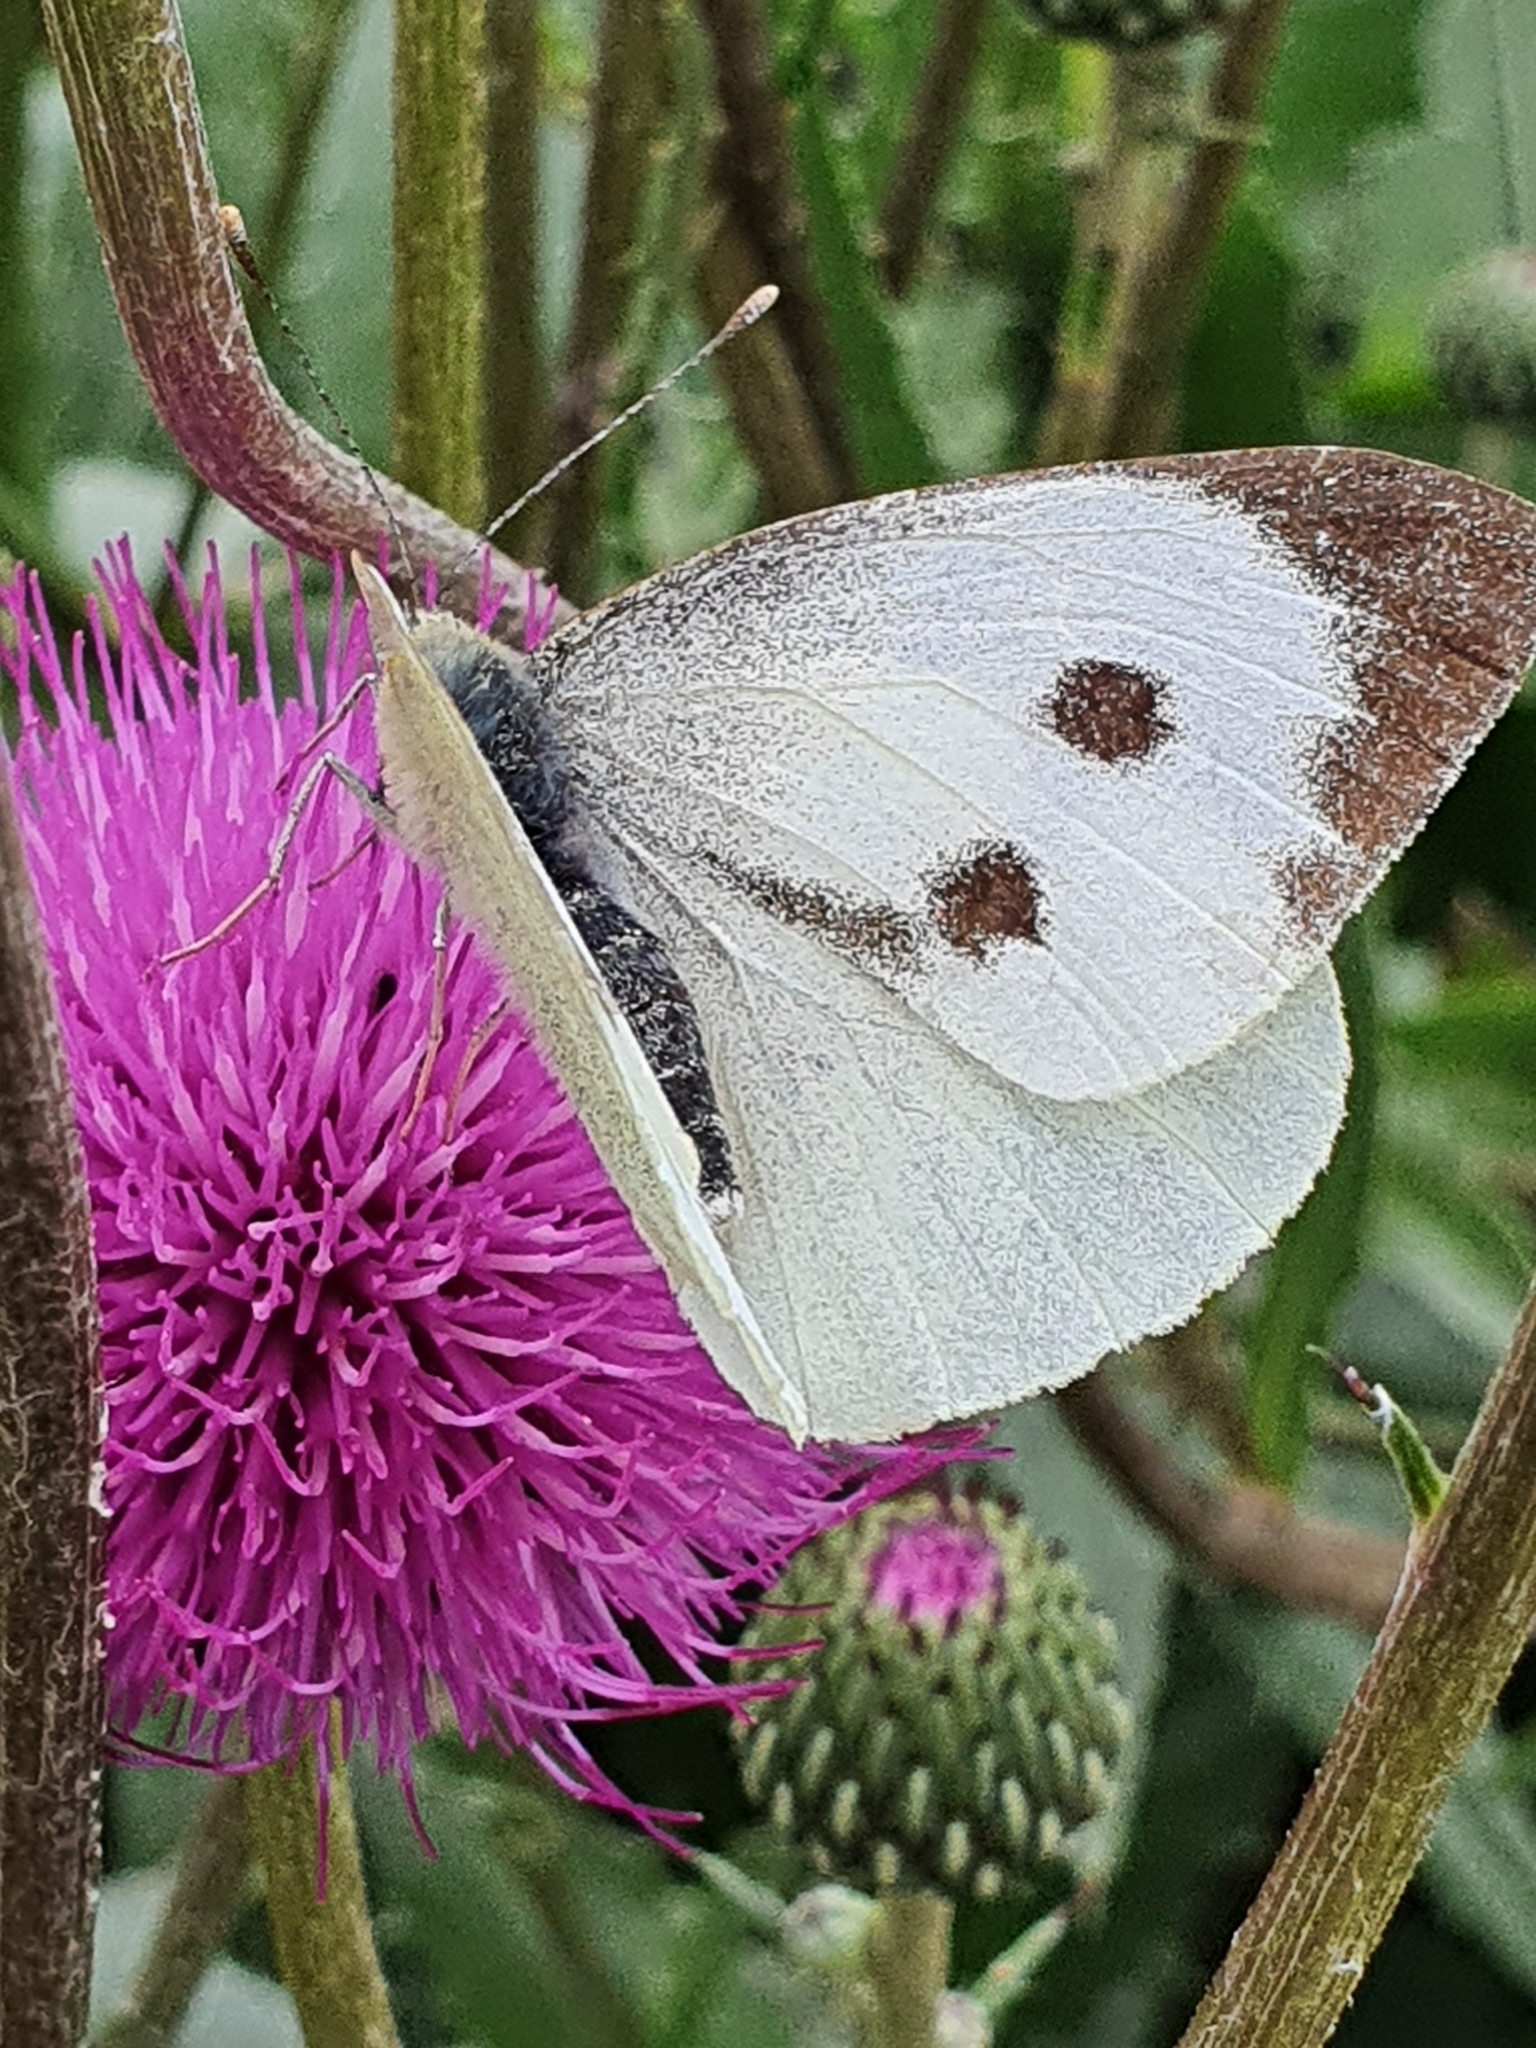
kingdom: Animalia
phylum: Arthropoda
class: Insecta
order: Lepidoptera
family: Pieridae
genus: Pieris
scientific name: Pieris brassicae
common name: Large white
